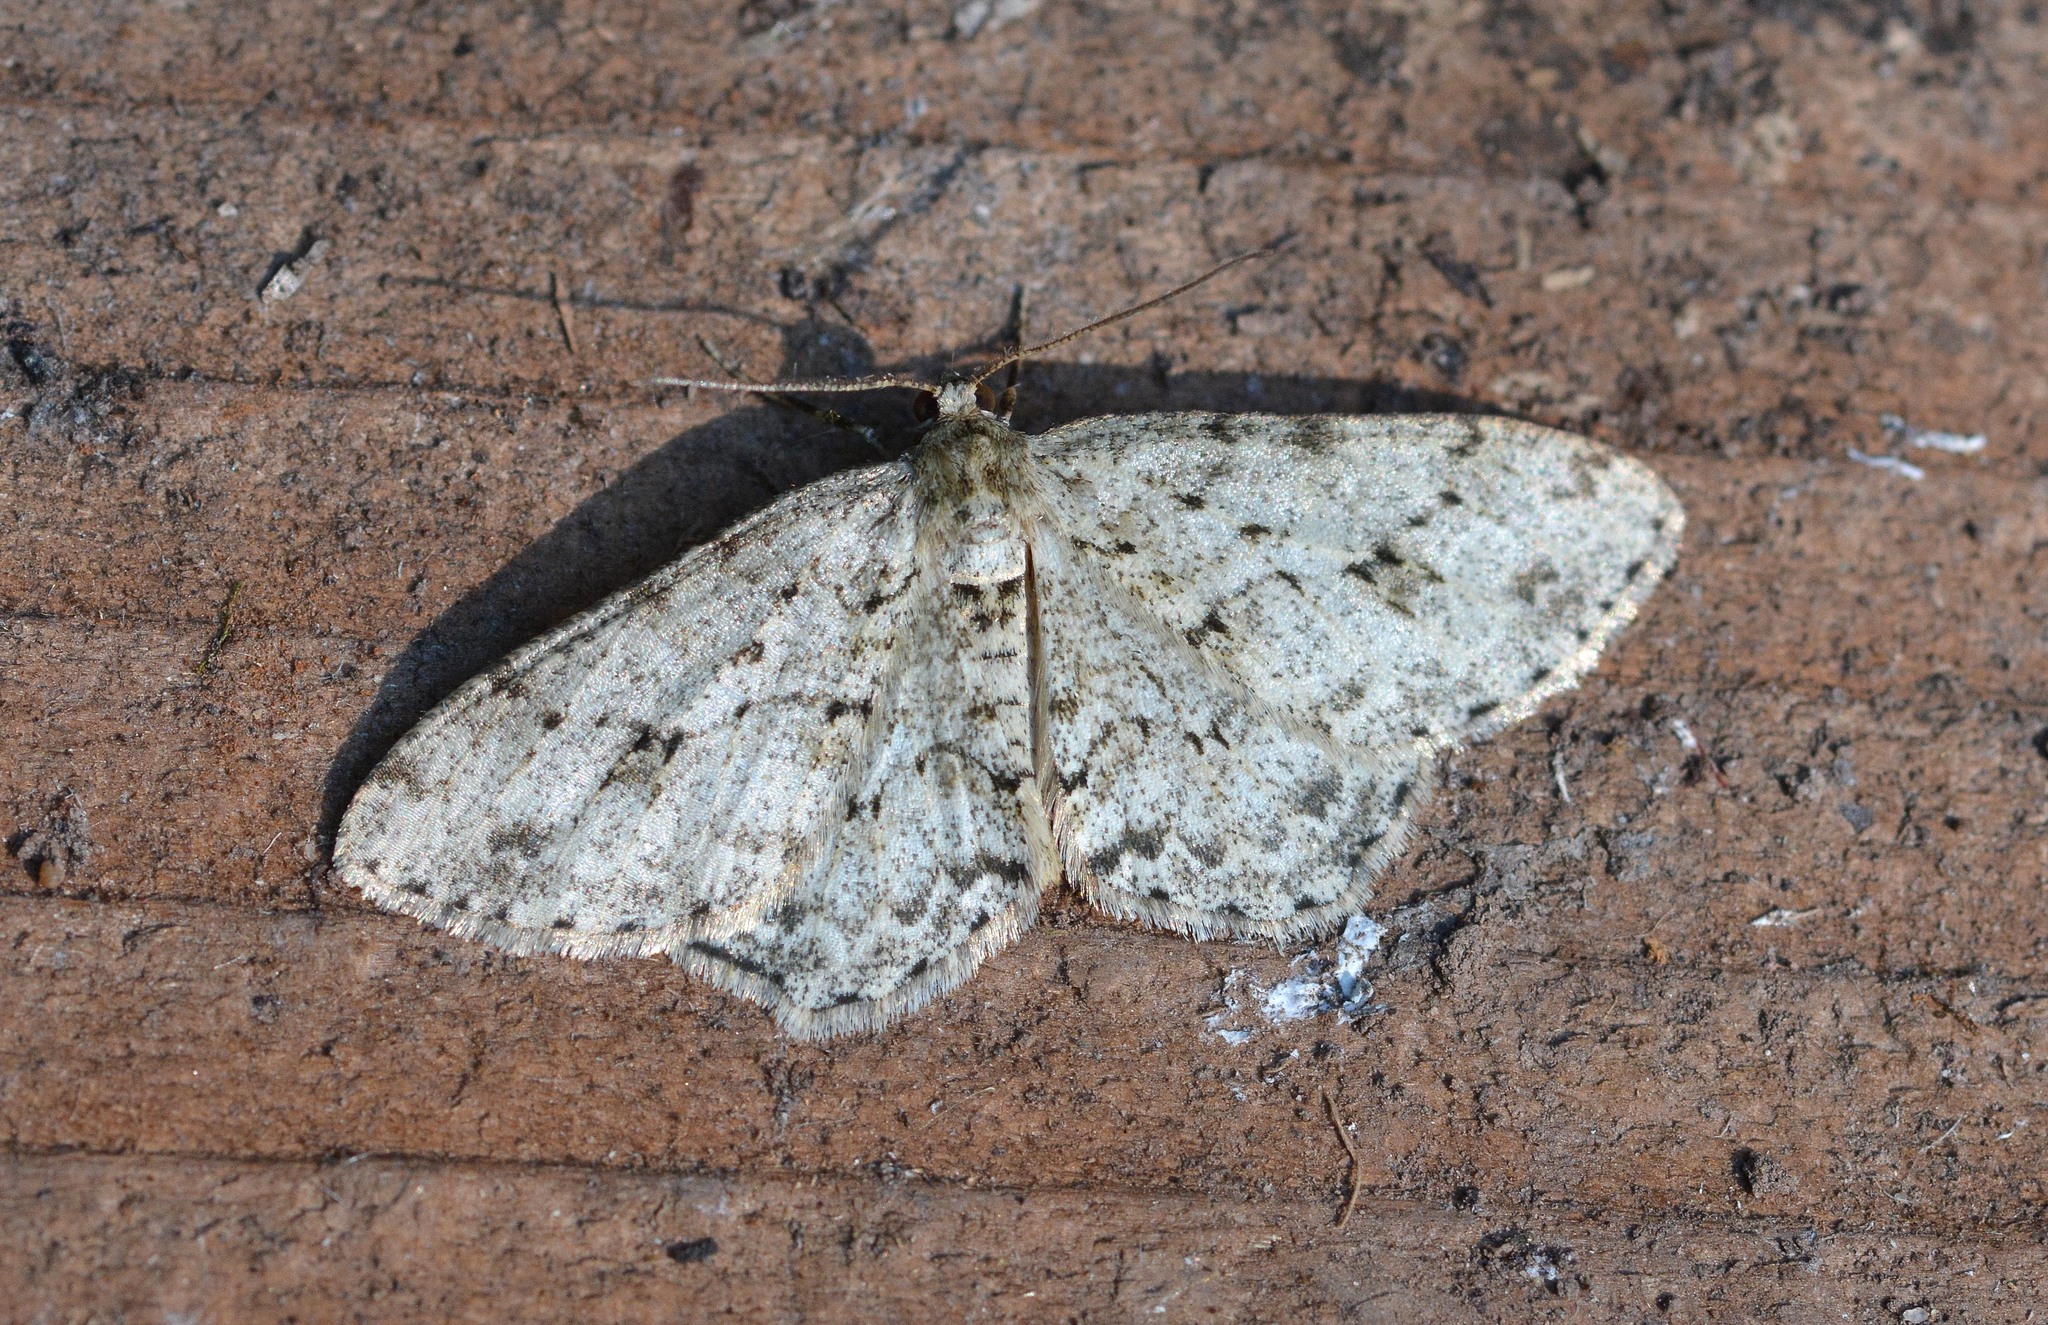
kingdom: Animalia
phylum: Arthropoda
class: Insecta
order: Lepidoptera
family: Geometridae
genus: Ectropis
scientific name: Ectropis crepuscularia
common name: Engrailed
